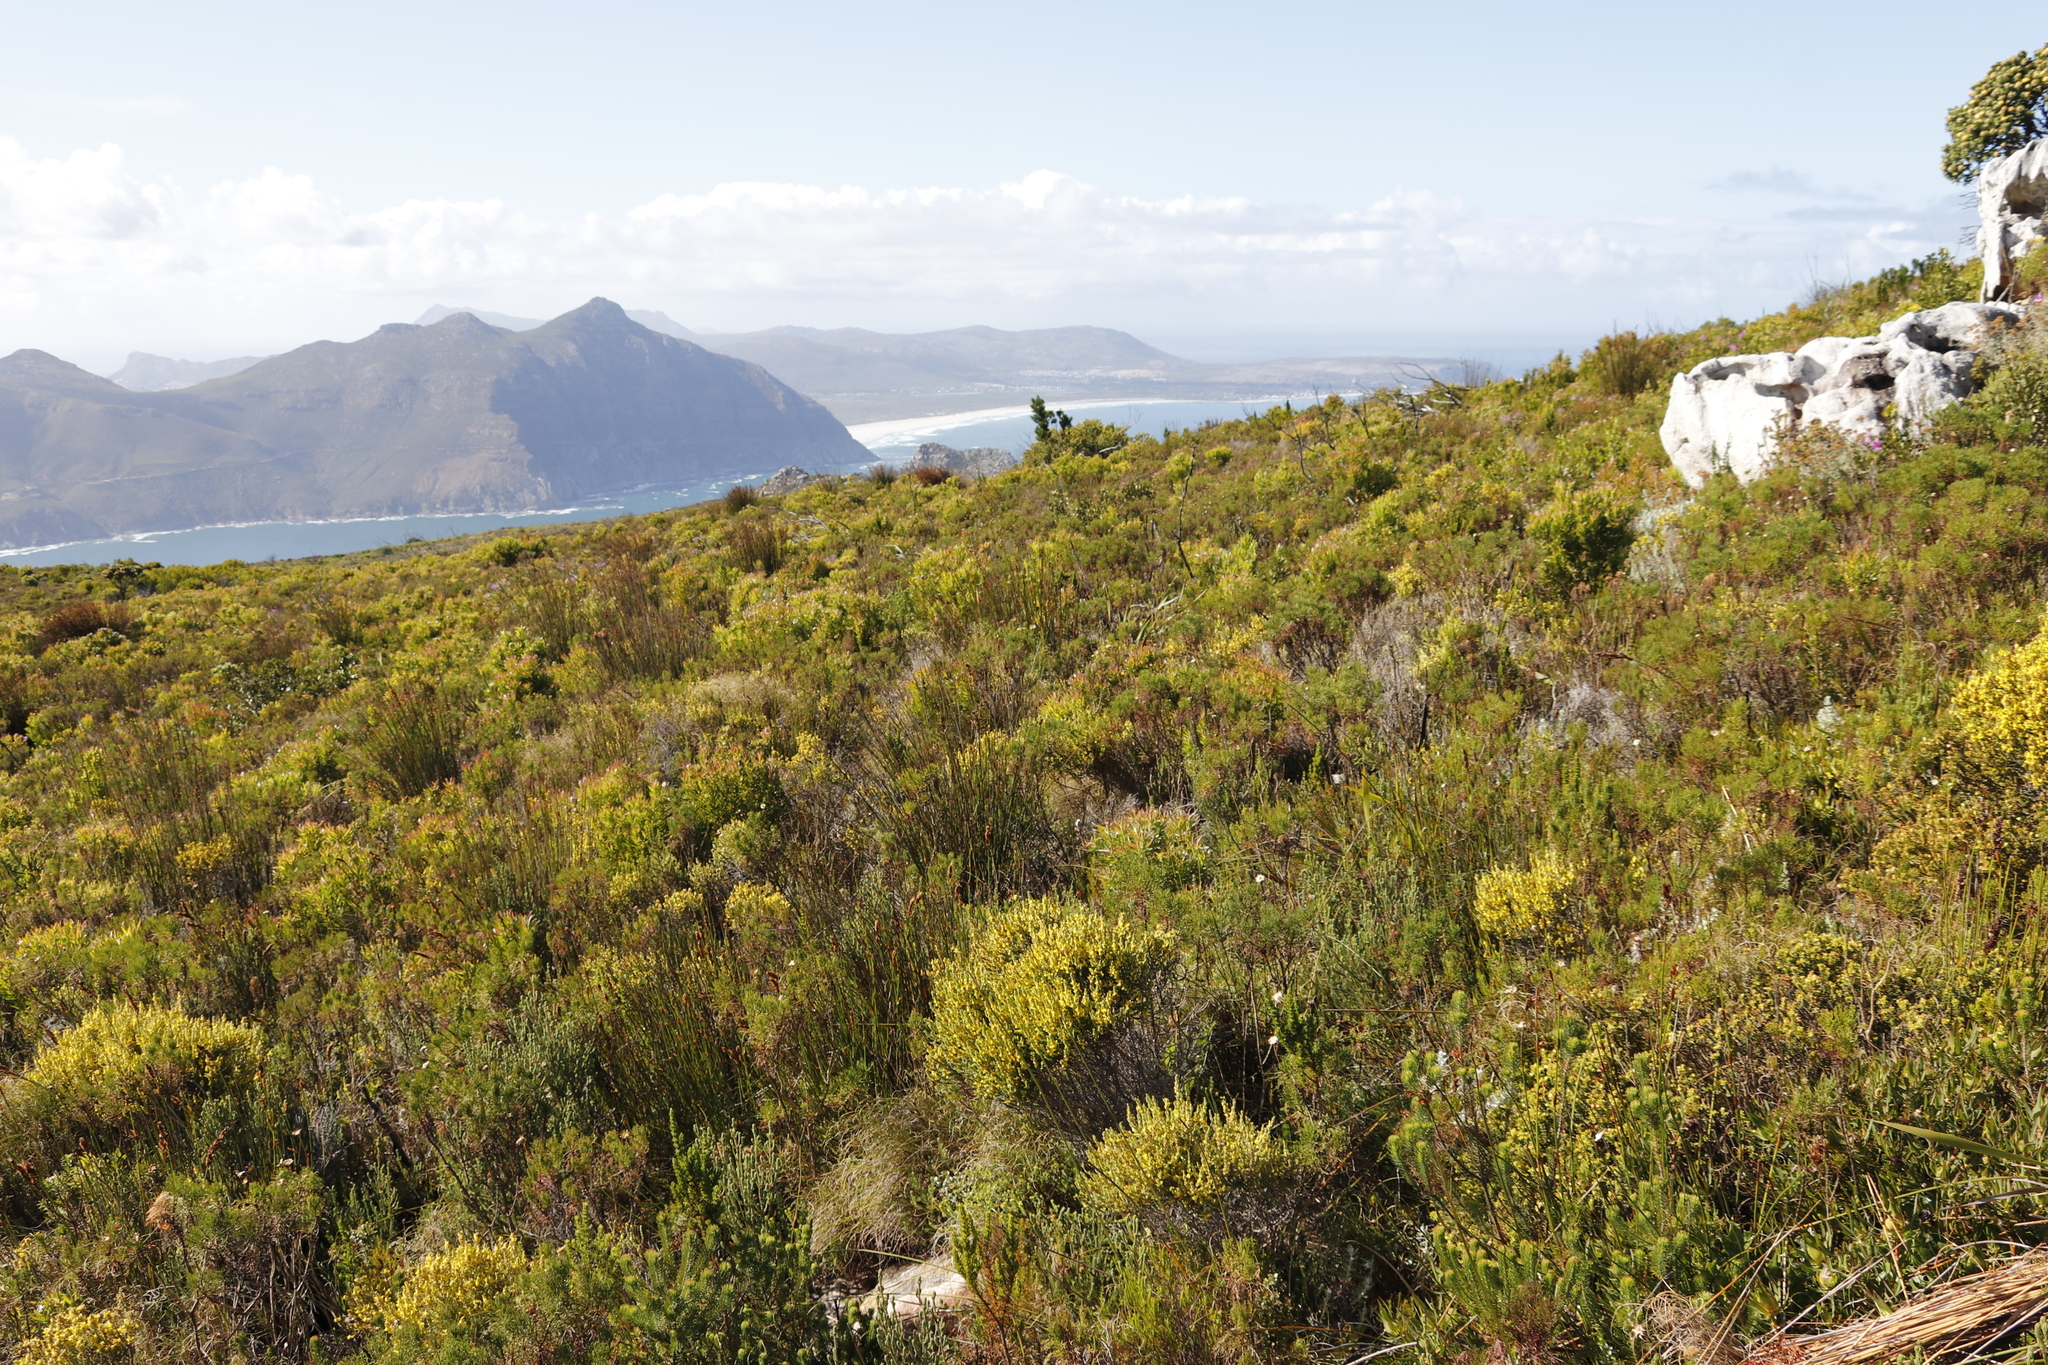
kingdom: Plantae
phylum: Tracheophyta
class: Magnoliopsida
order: Fabales
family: Fabaceae
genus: Psoralea
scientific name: Psoralea pinnata
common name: African scurfpea
